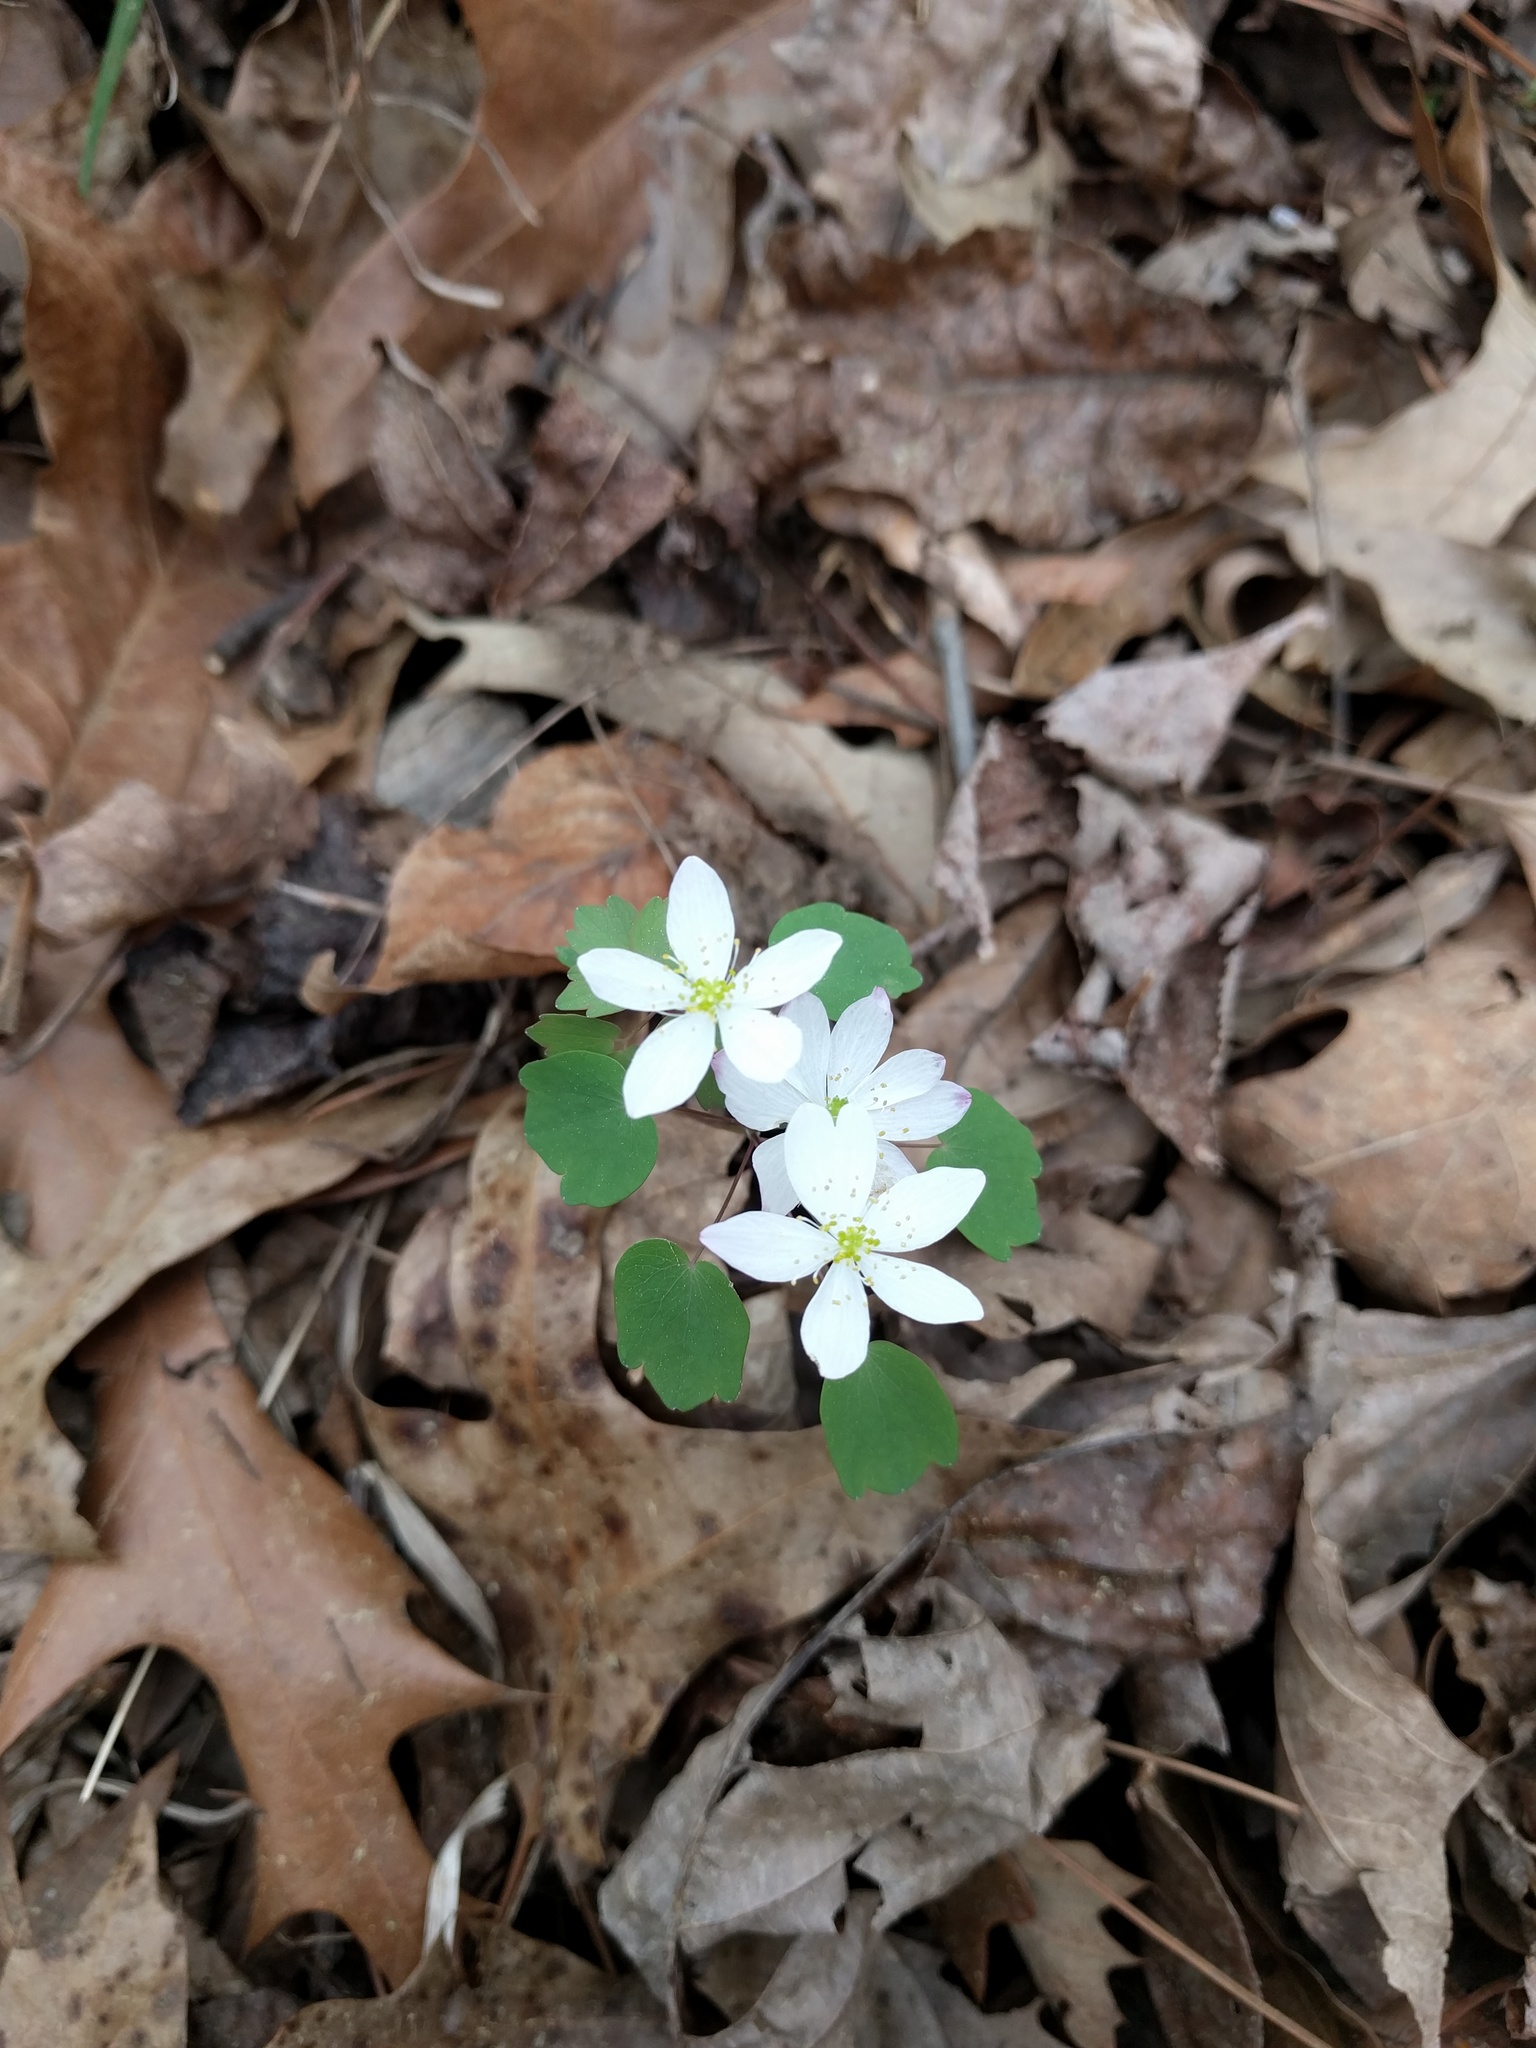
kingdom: Plantae
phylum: Tracheophyta
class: Magnoliopsida
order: Ranunculales
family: Ranunculaceae
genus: Thalictrum
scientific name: Thalictrum thalictroides
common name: Rue-anemone
